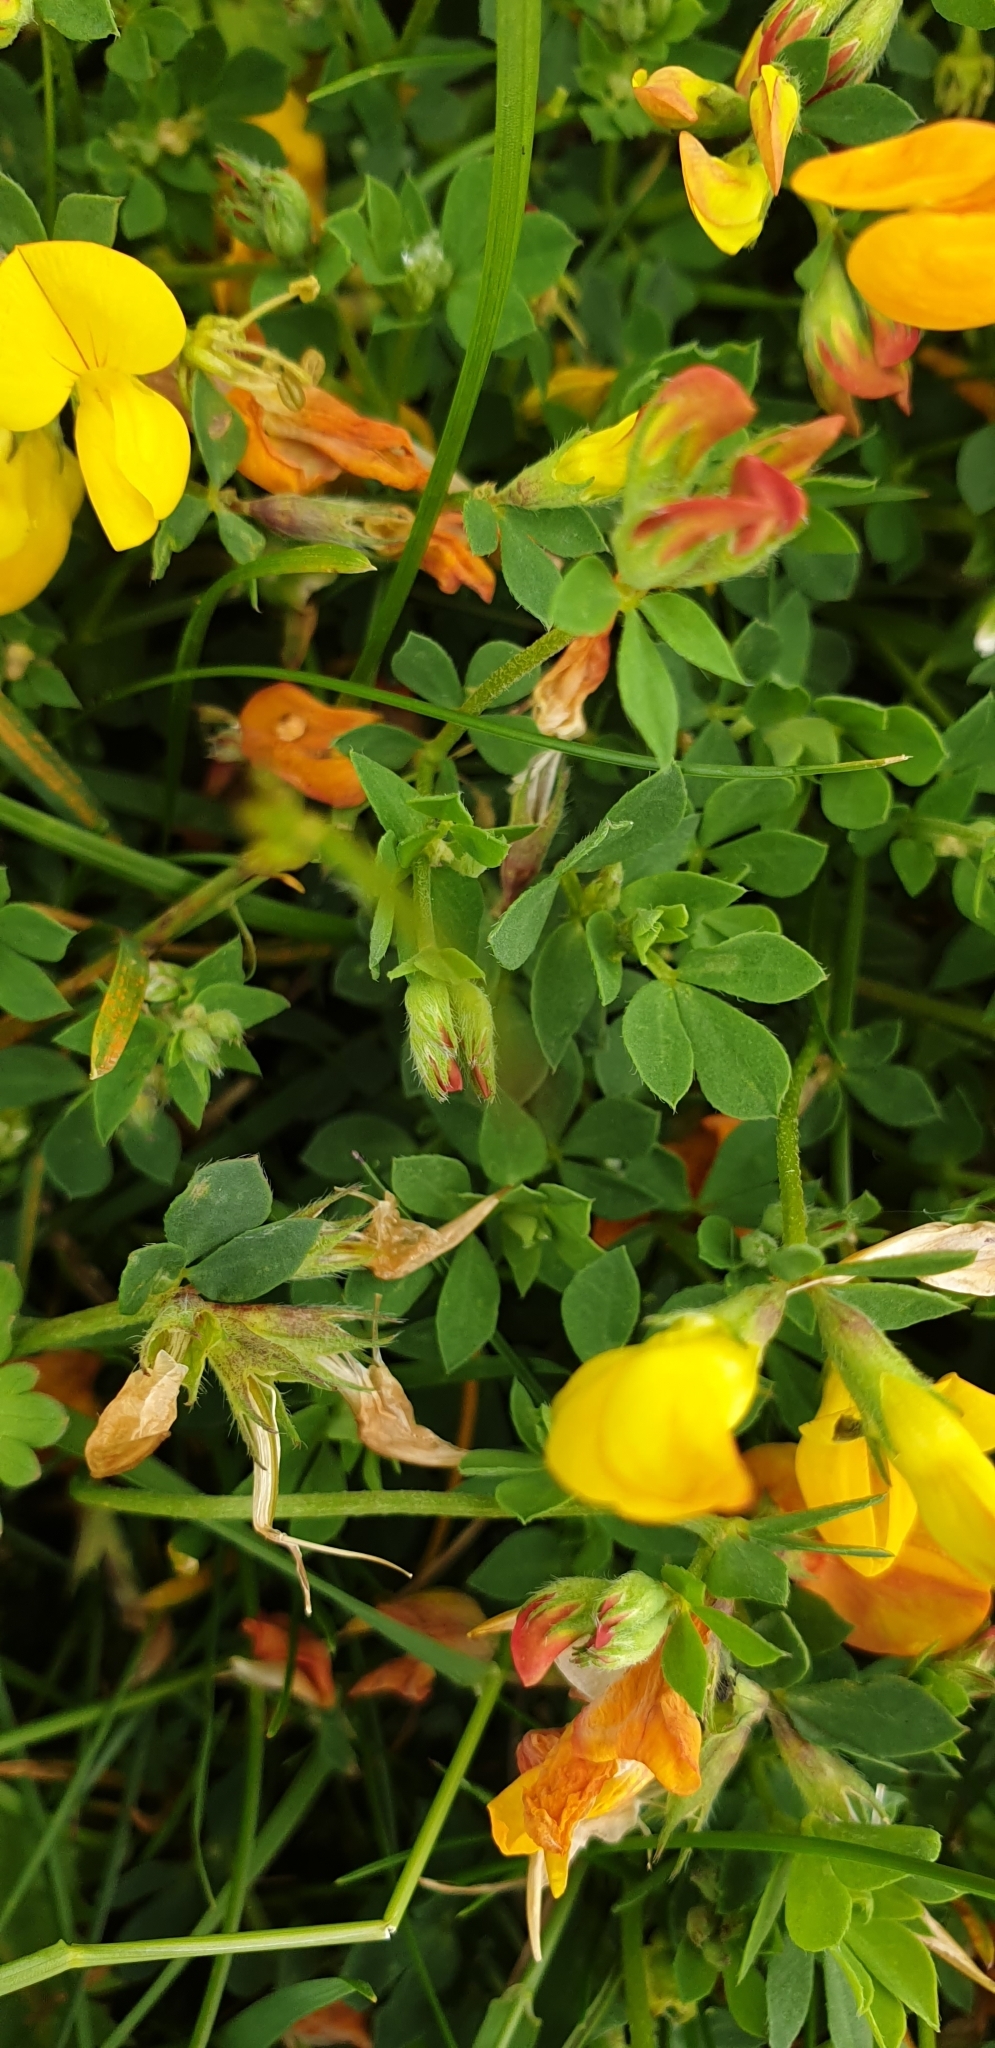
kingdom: Plantae
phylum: Tracheophyta
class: Magnoliopsida
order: Fabales
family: Fabaceae
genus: Lotus
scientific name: Lotus corniculatus
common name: Common bird's-foot-trefoil
